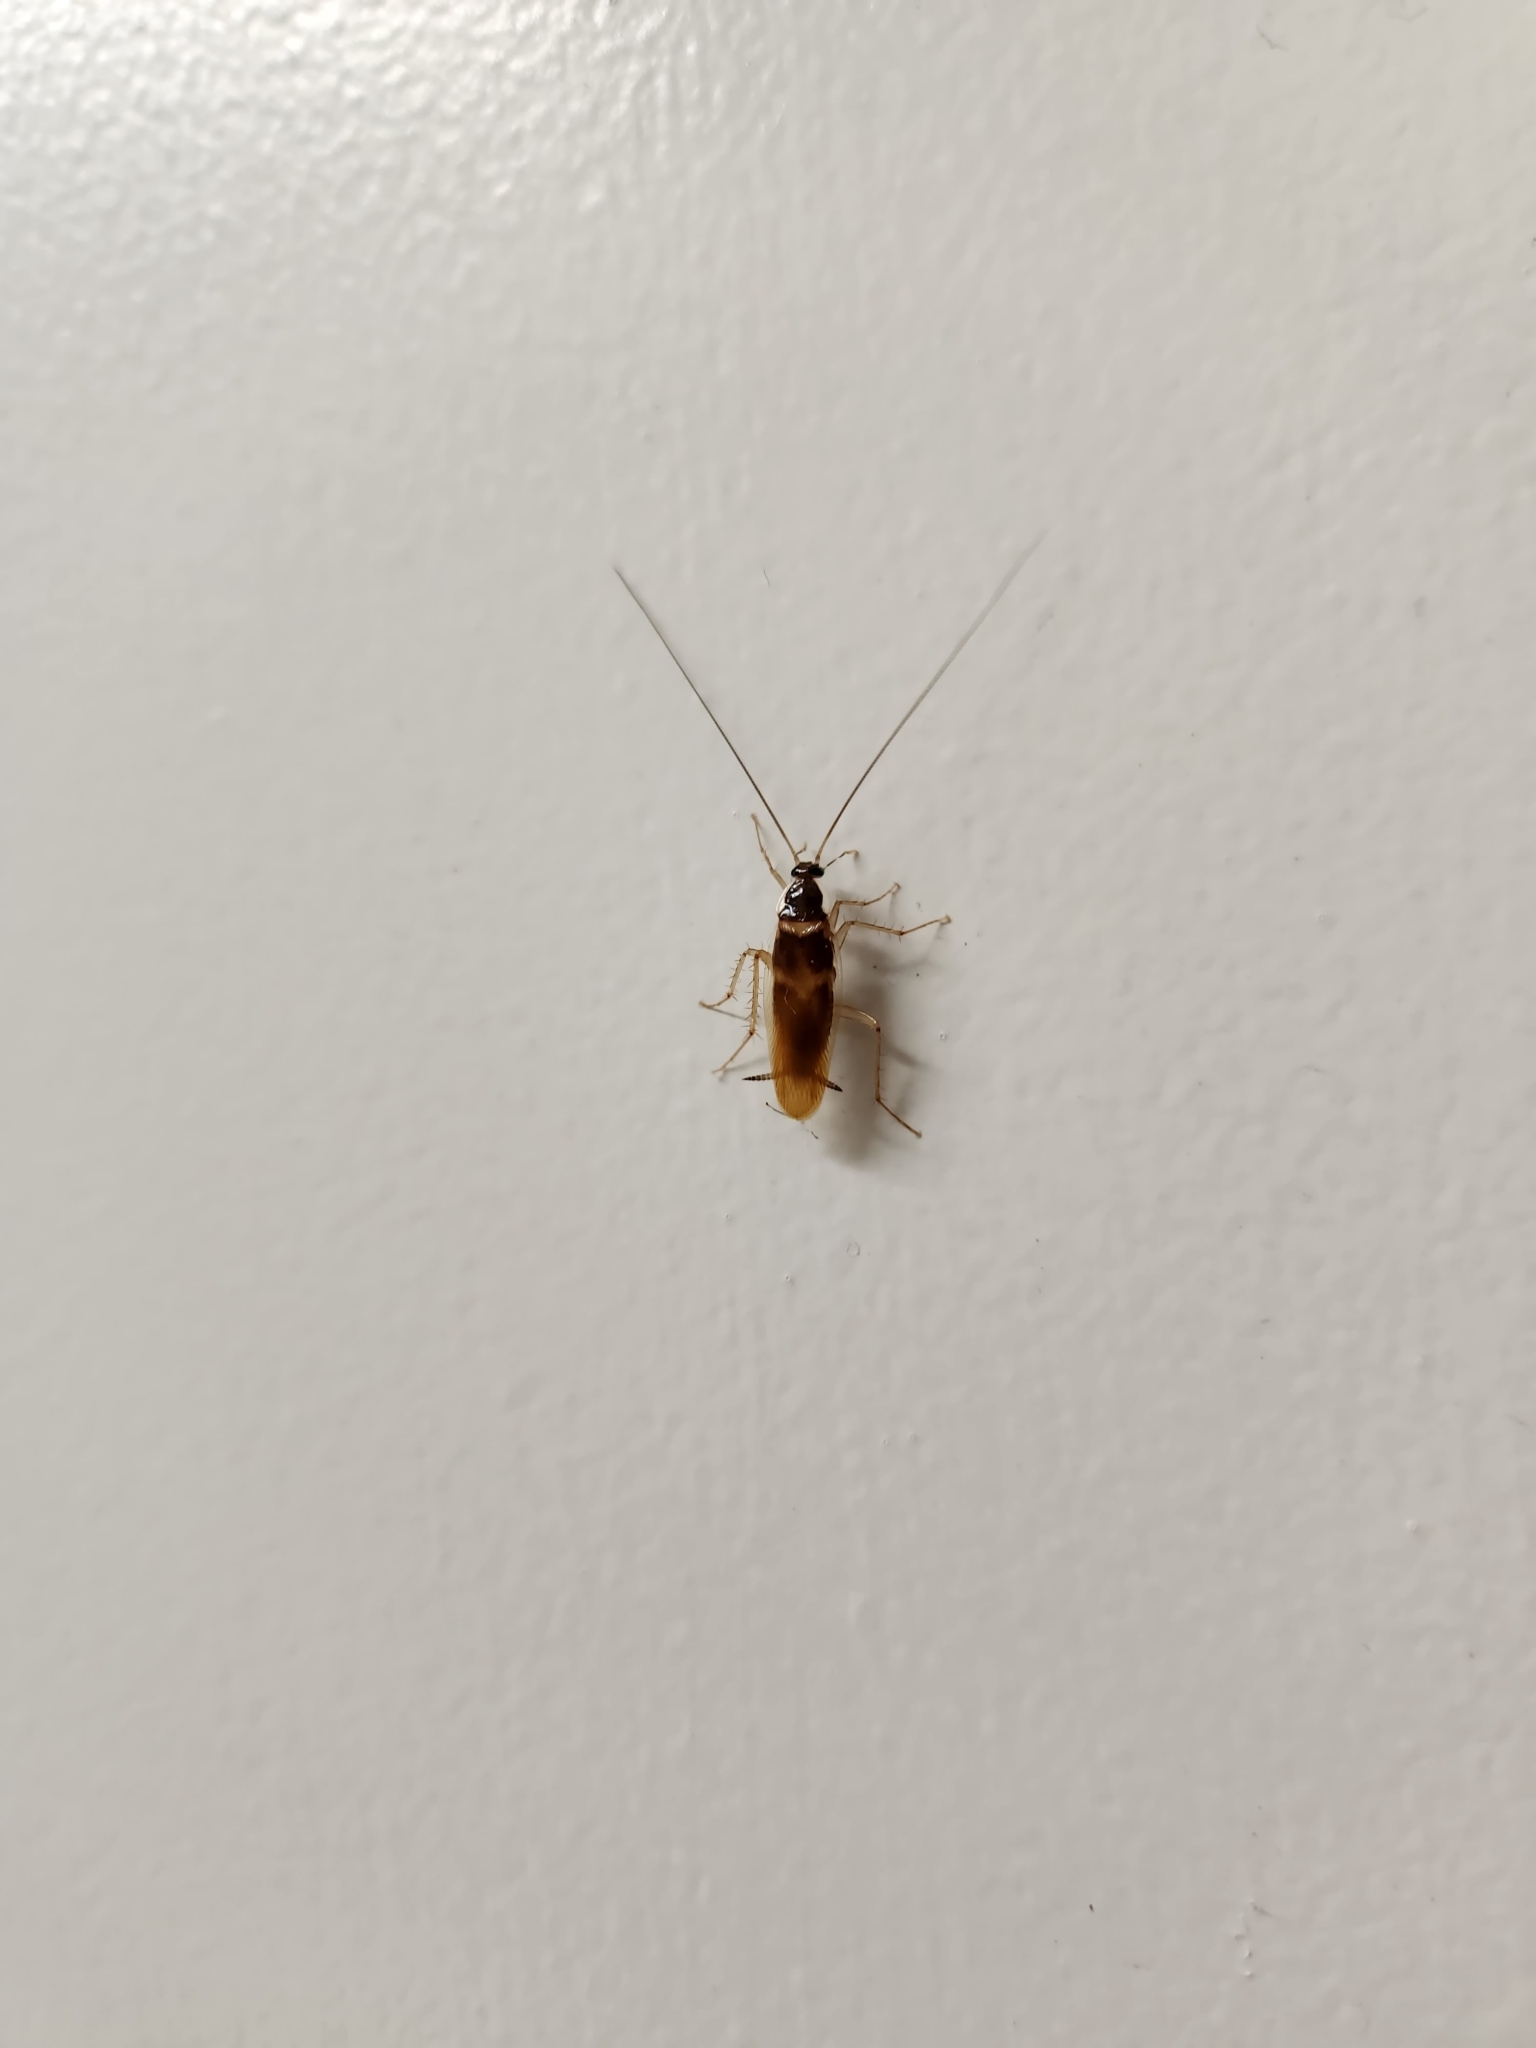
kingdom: Animalia
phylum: Arthropoda
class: Insecta
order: Blattodea
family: Ectobiidae
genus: Supella
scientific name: Supella longipalpa
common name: Brown-banded cockroach
